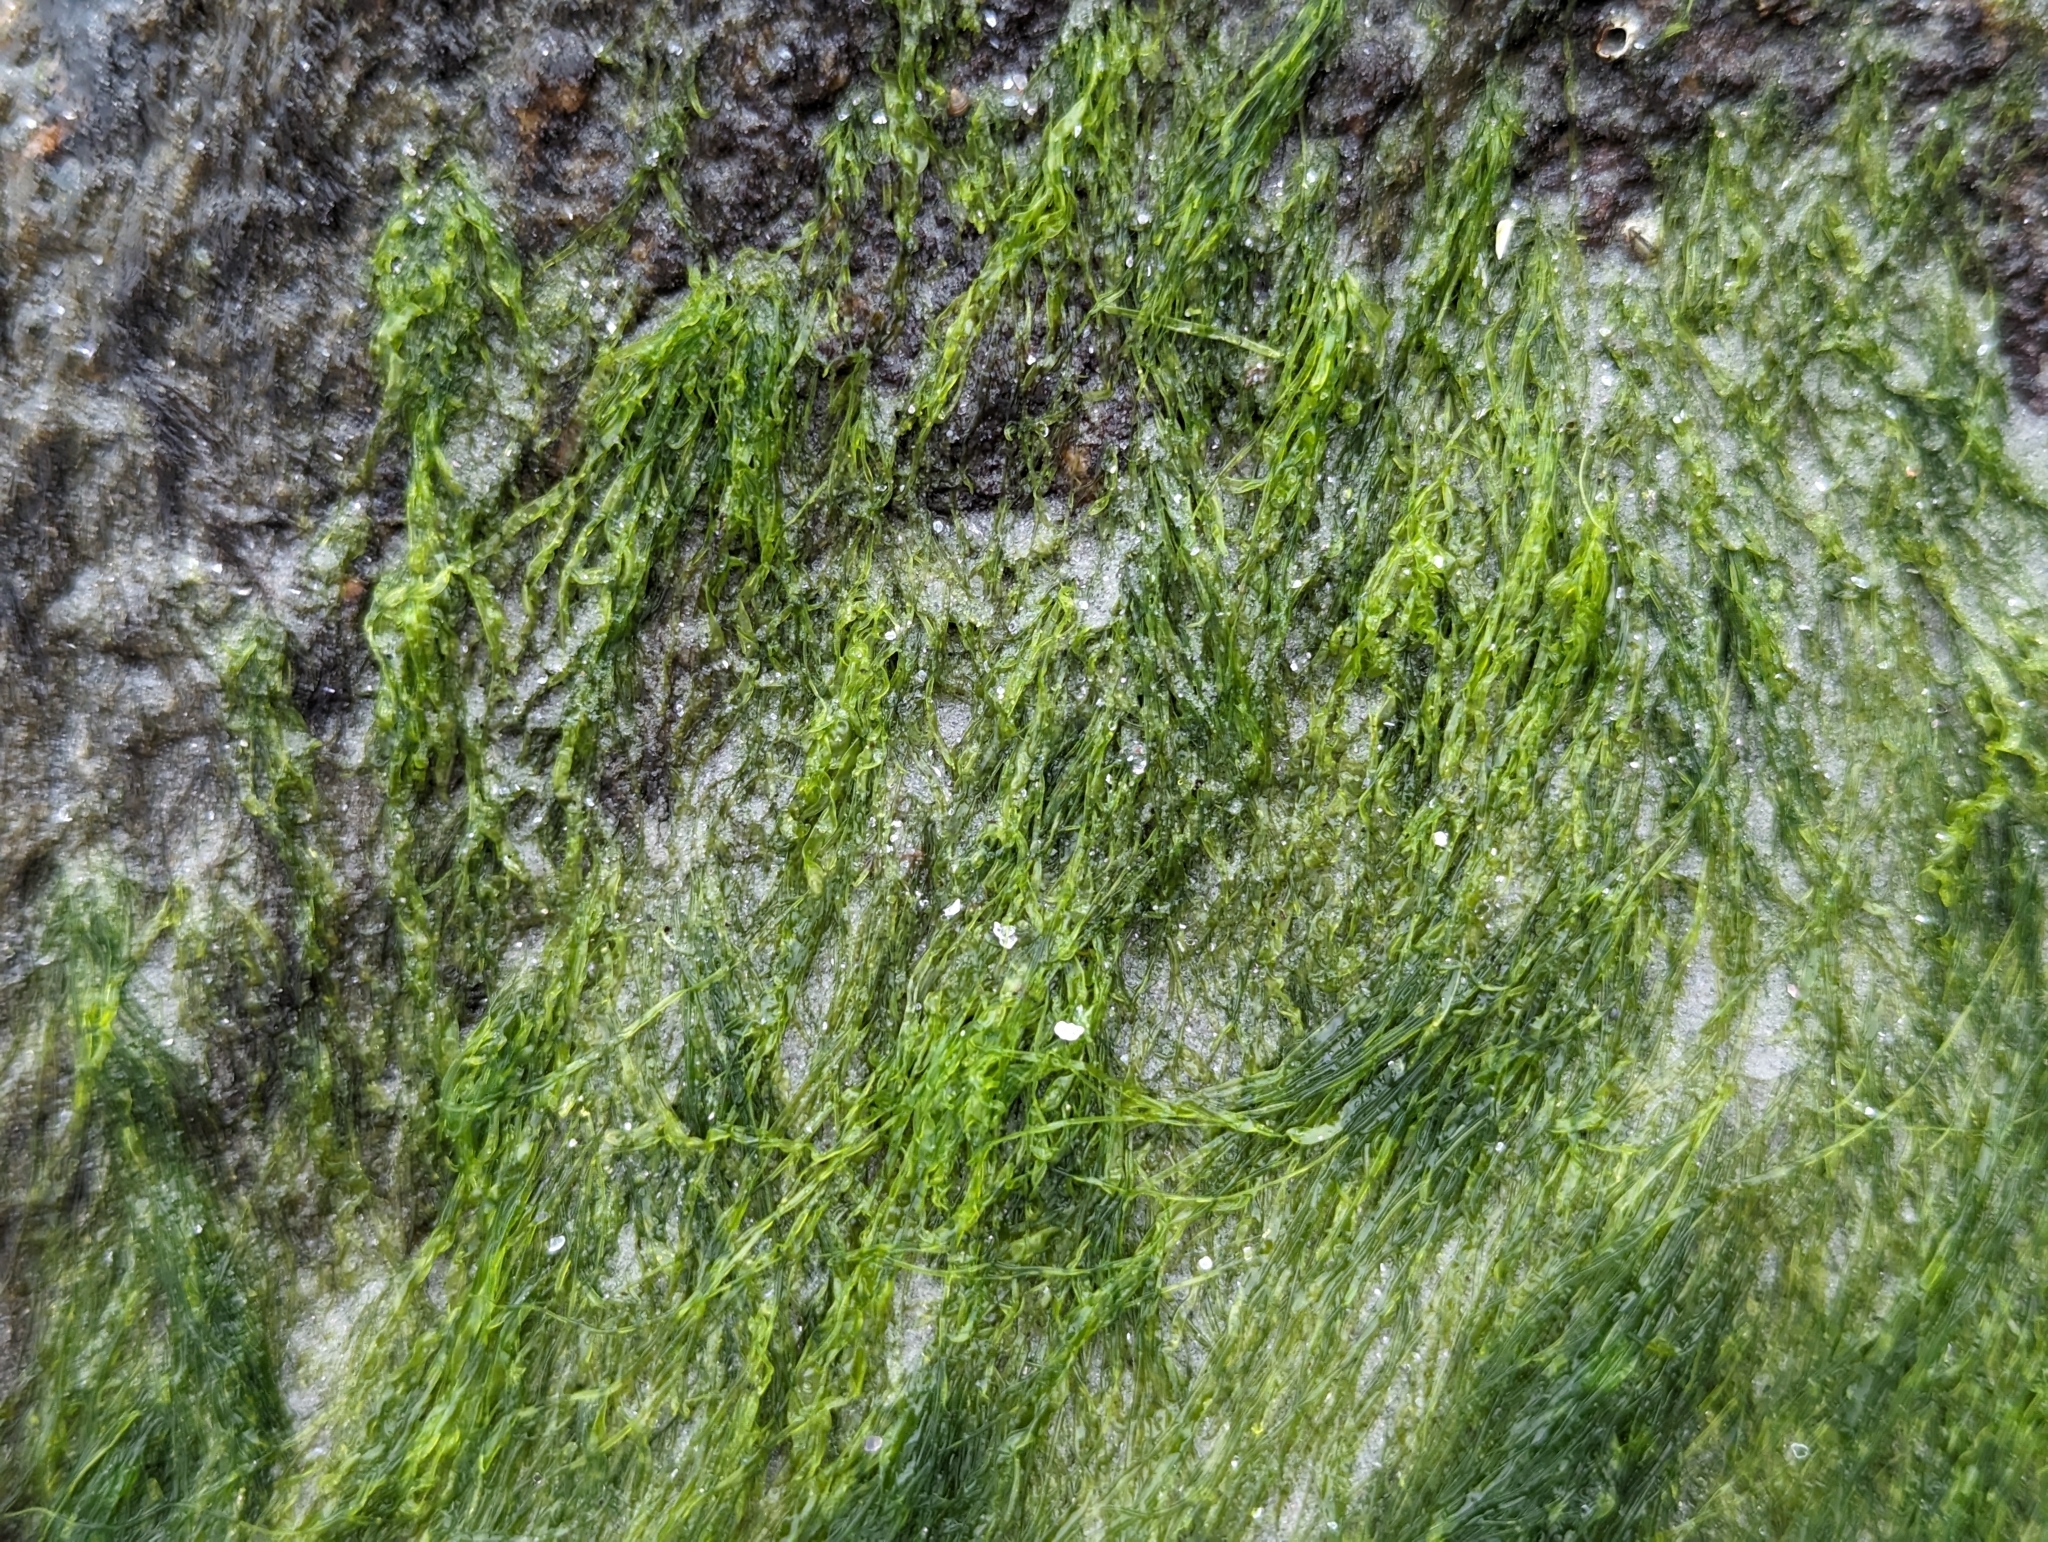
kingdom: Plantae
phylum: Chlorophyta
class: Ulvophyceae
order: Ulvales
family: Ulvaceae
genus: Ulva
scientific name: Ulva intestinalis
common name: Gut weed
